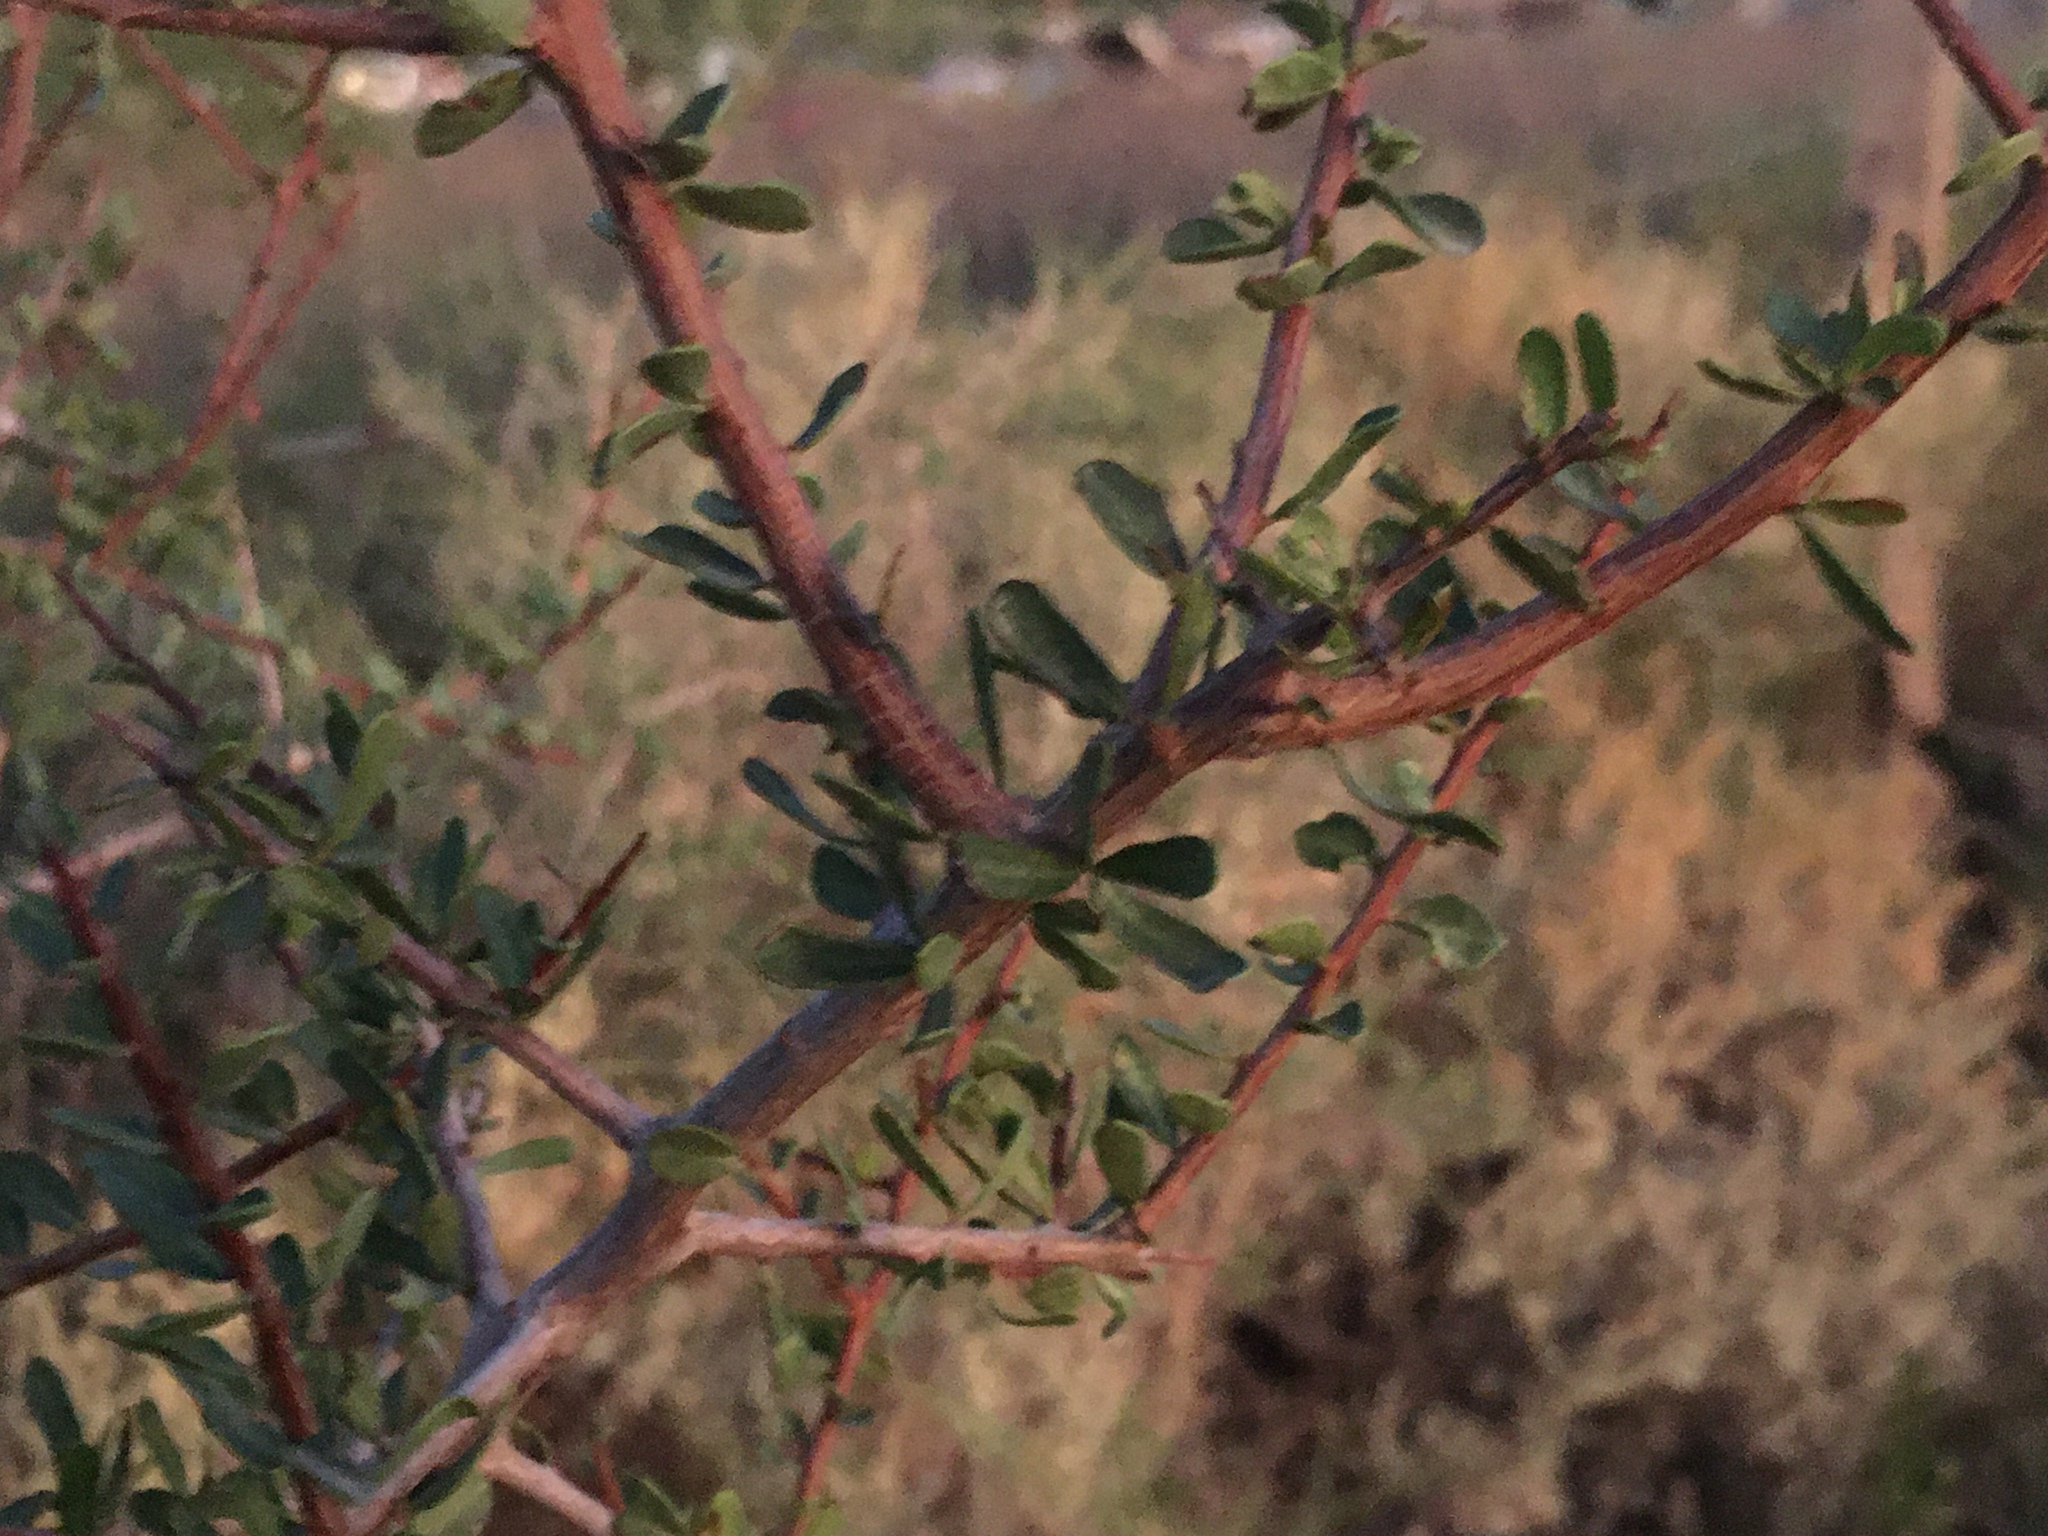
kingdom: Plantae
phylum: Tracheophyta
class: Magnoliopsida
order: Solanales
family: Solanaceae
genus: Lycium
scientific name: Lycium chilense
